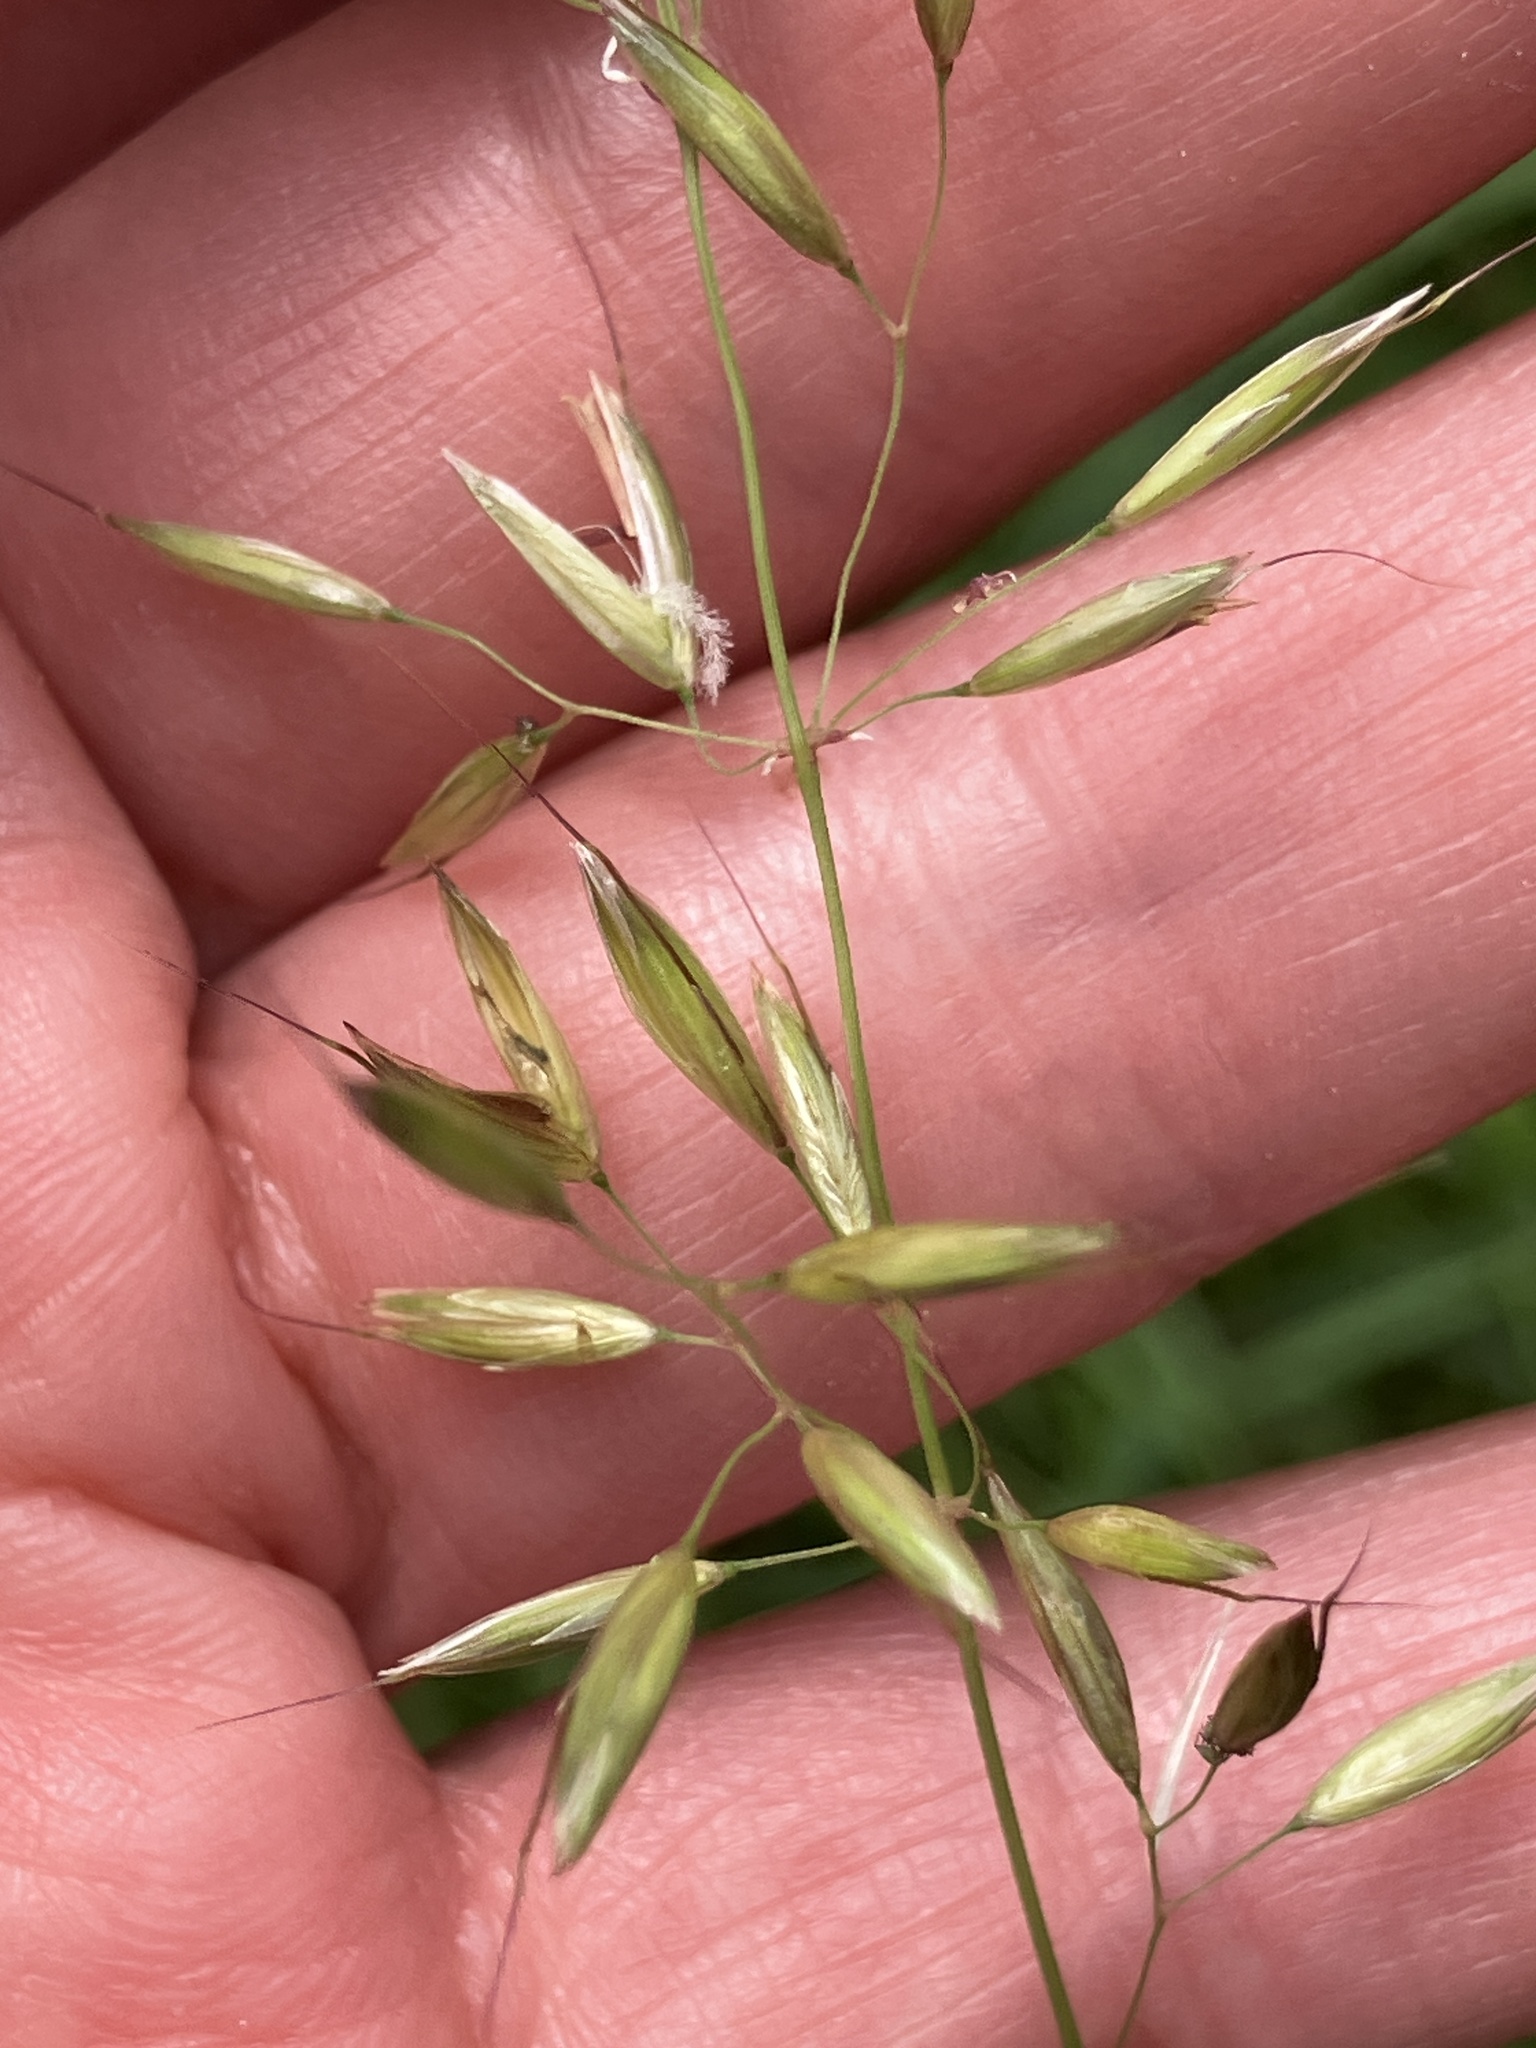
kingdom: Plantae
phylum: Tracheophyta
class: Liliopsida
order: Poales
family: Poaceae
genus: Arrhenatherum
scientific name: Arrhenatherum elatius
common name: Tall oatgrass
